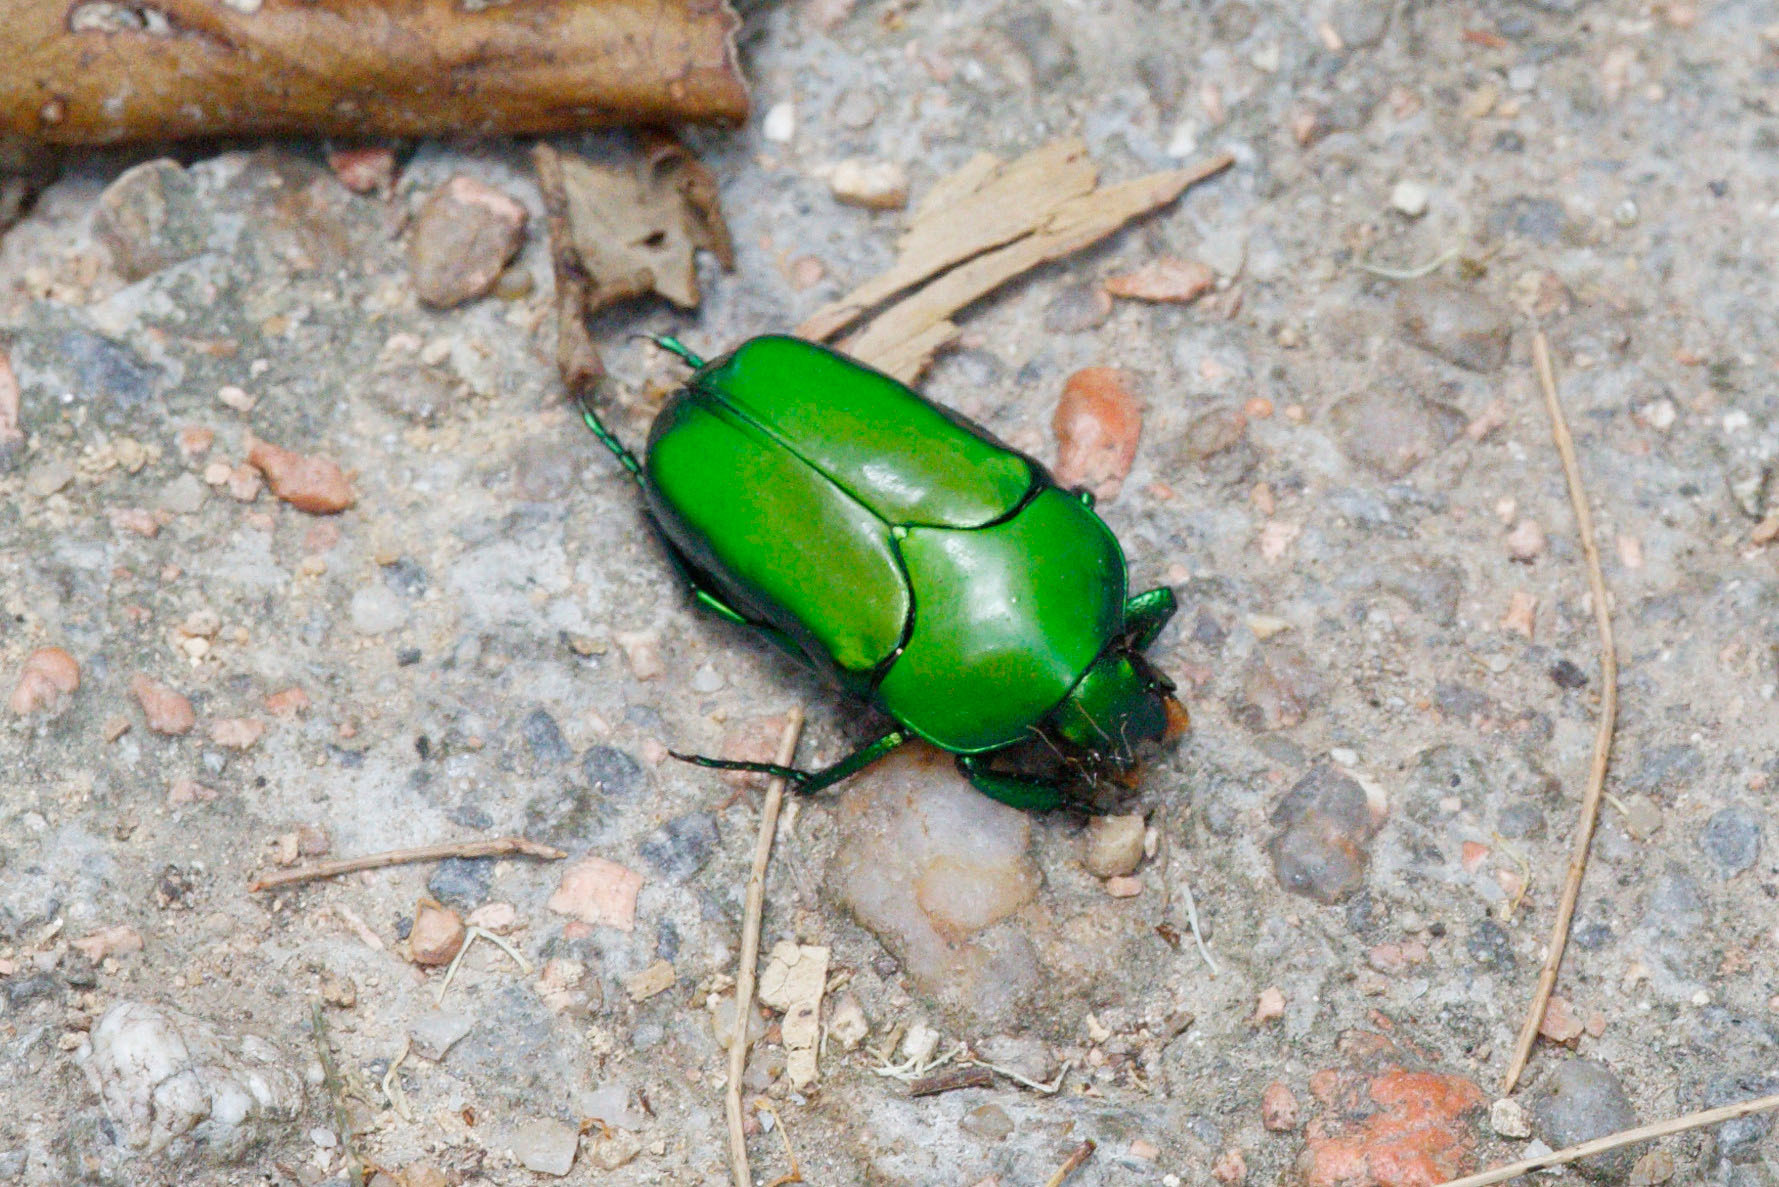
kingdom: Animalia
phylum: Arthropoda
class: Insecta
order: Coleoptera
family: Scarabaeidae
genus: Ischiopsopha
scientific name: Ischiopsopha wallacei
